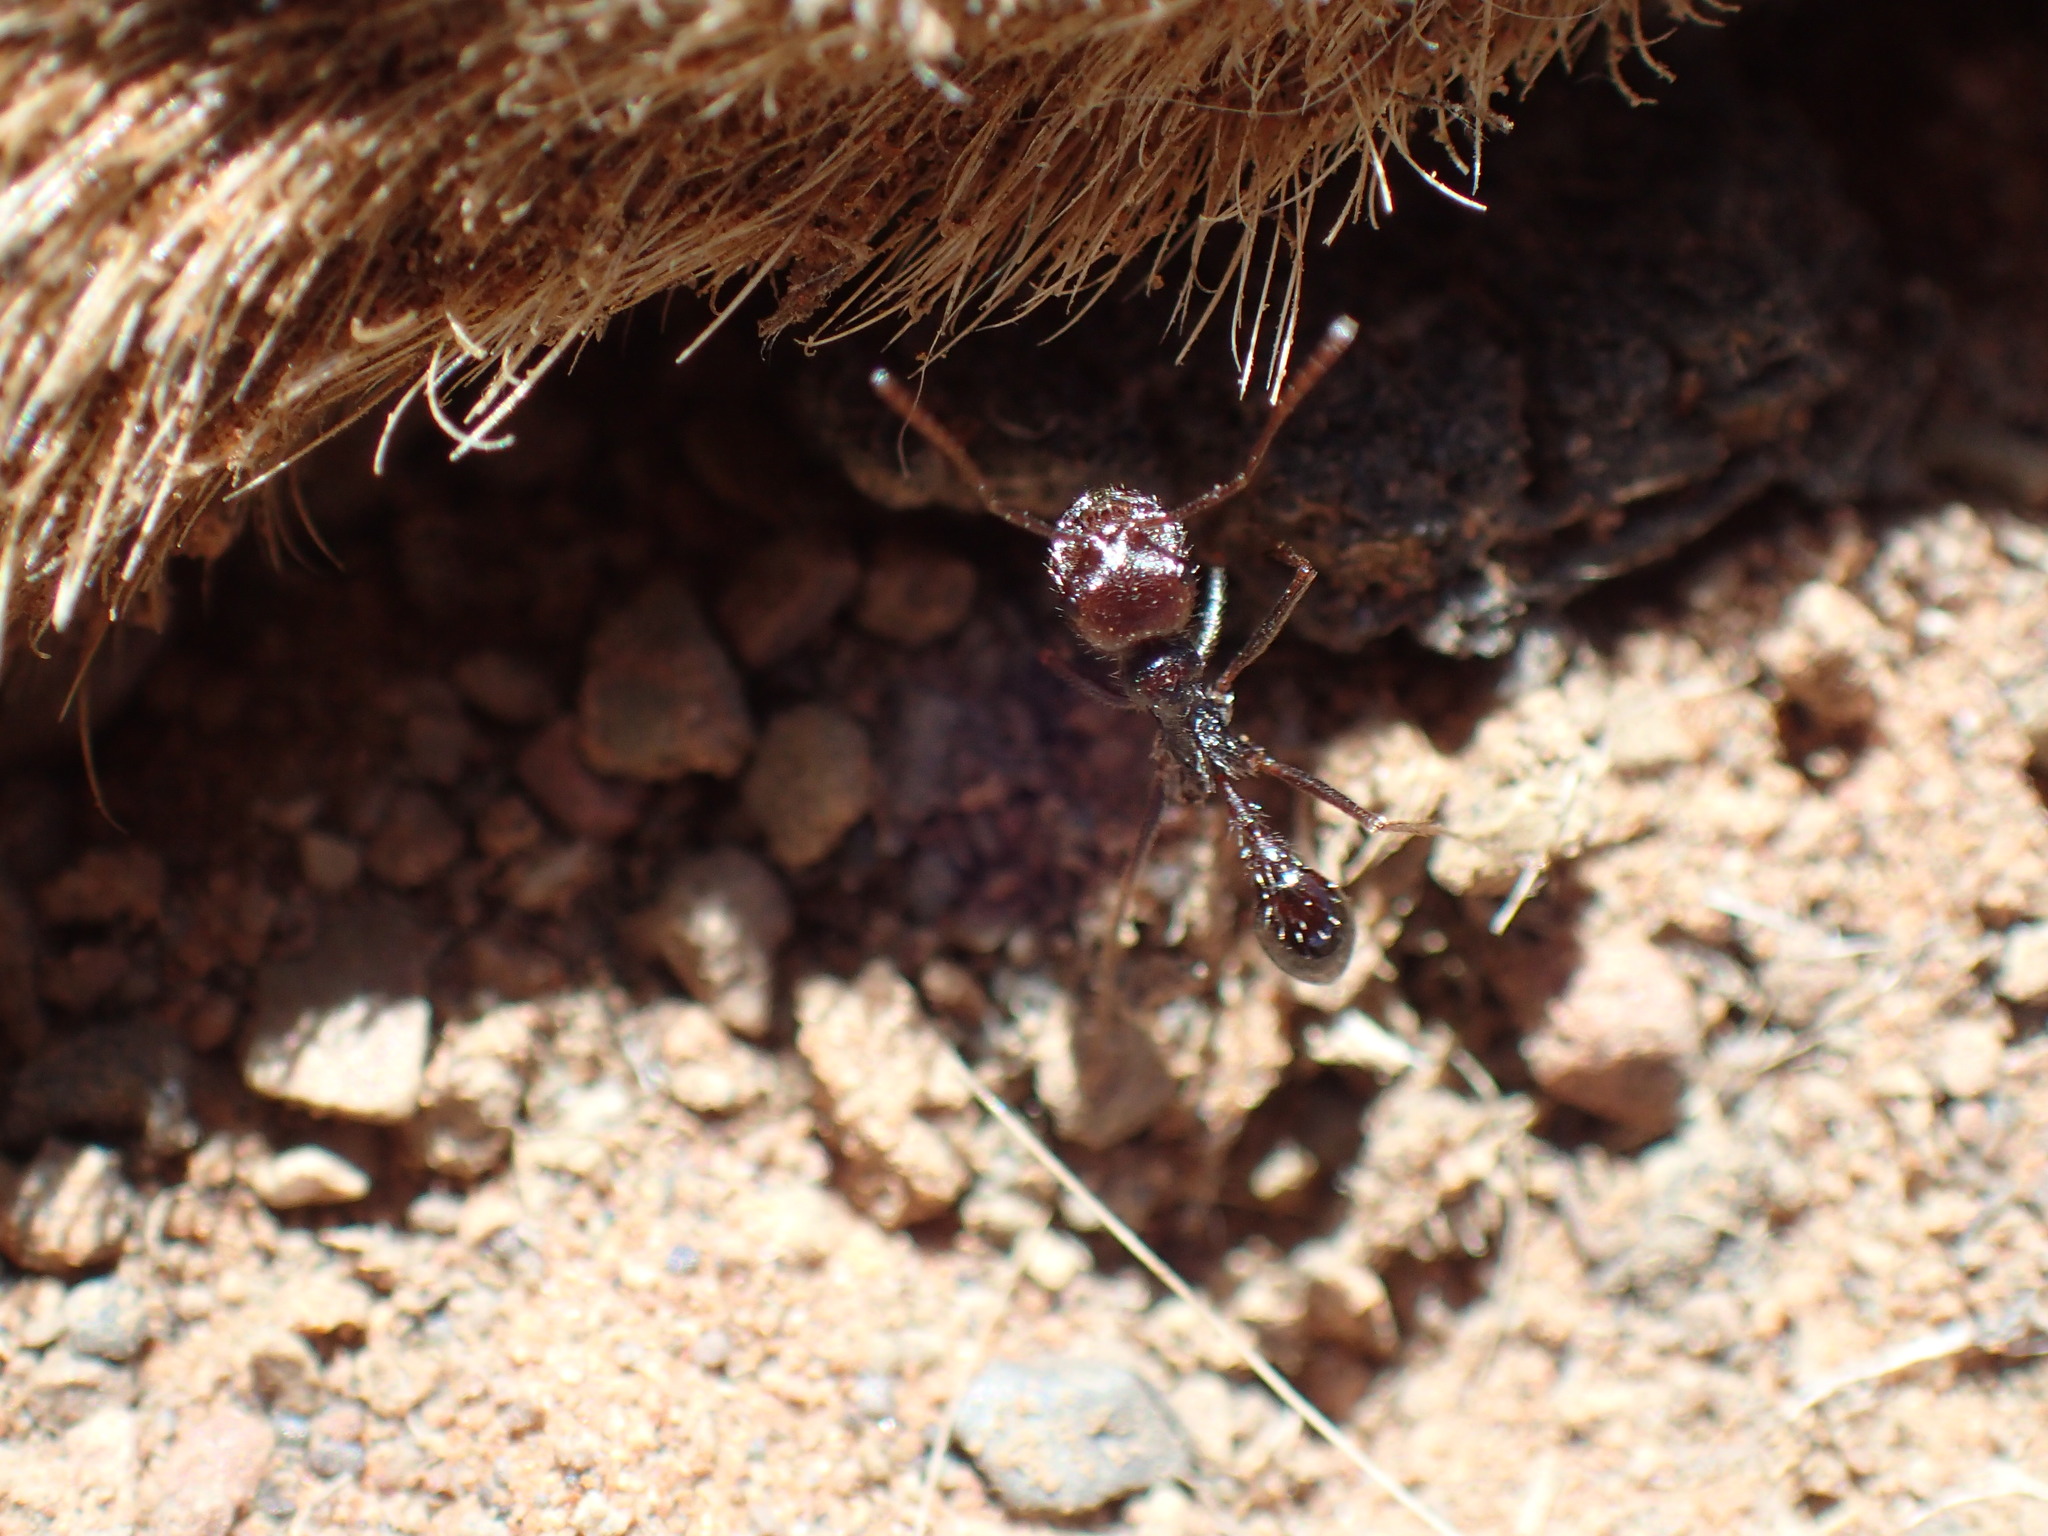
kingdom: Animalia
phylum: Arthropoda
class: Insecta
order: Hymenoptera
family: Formicidae
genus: Ocymyrmex
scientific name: Ocymyrmex barbiger
